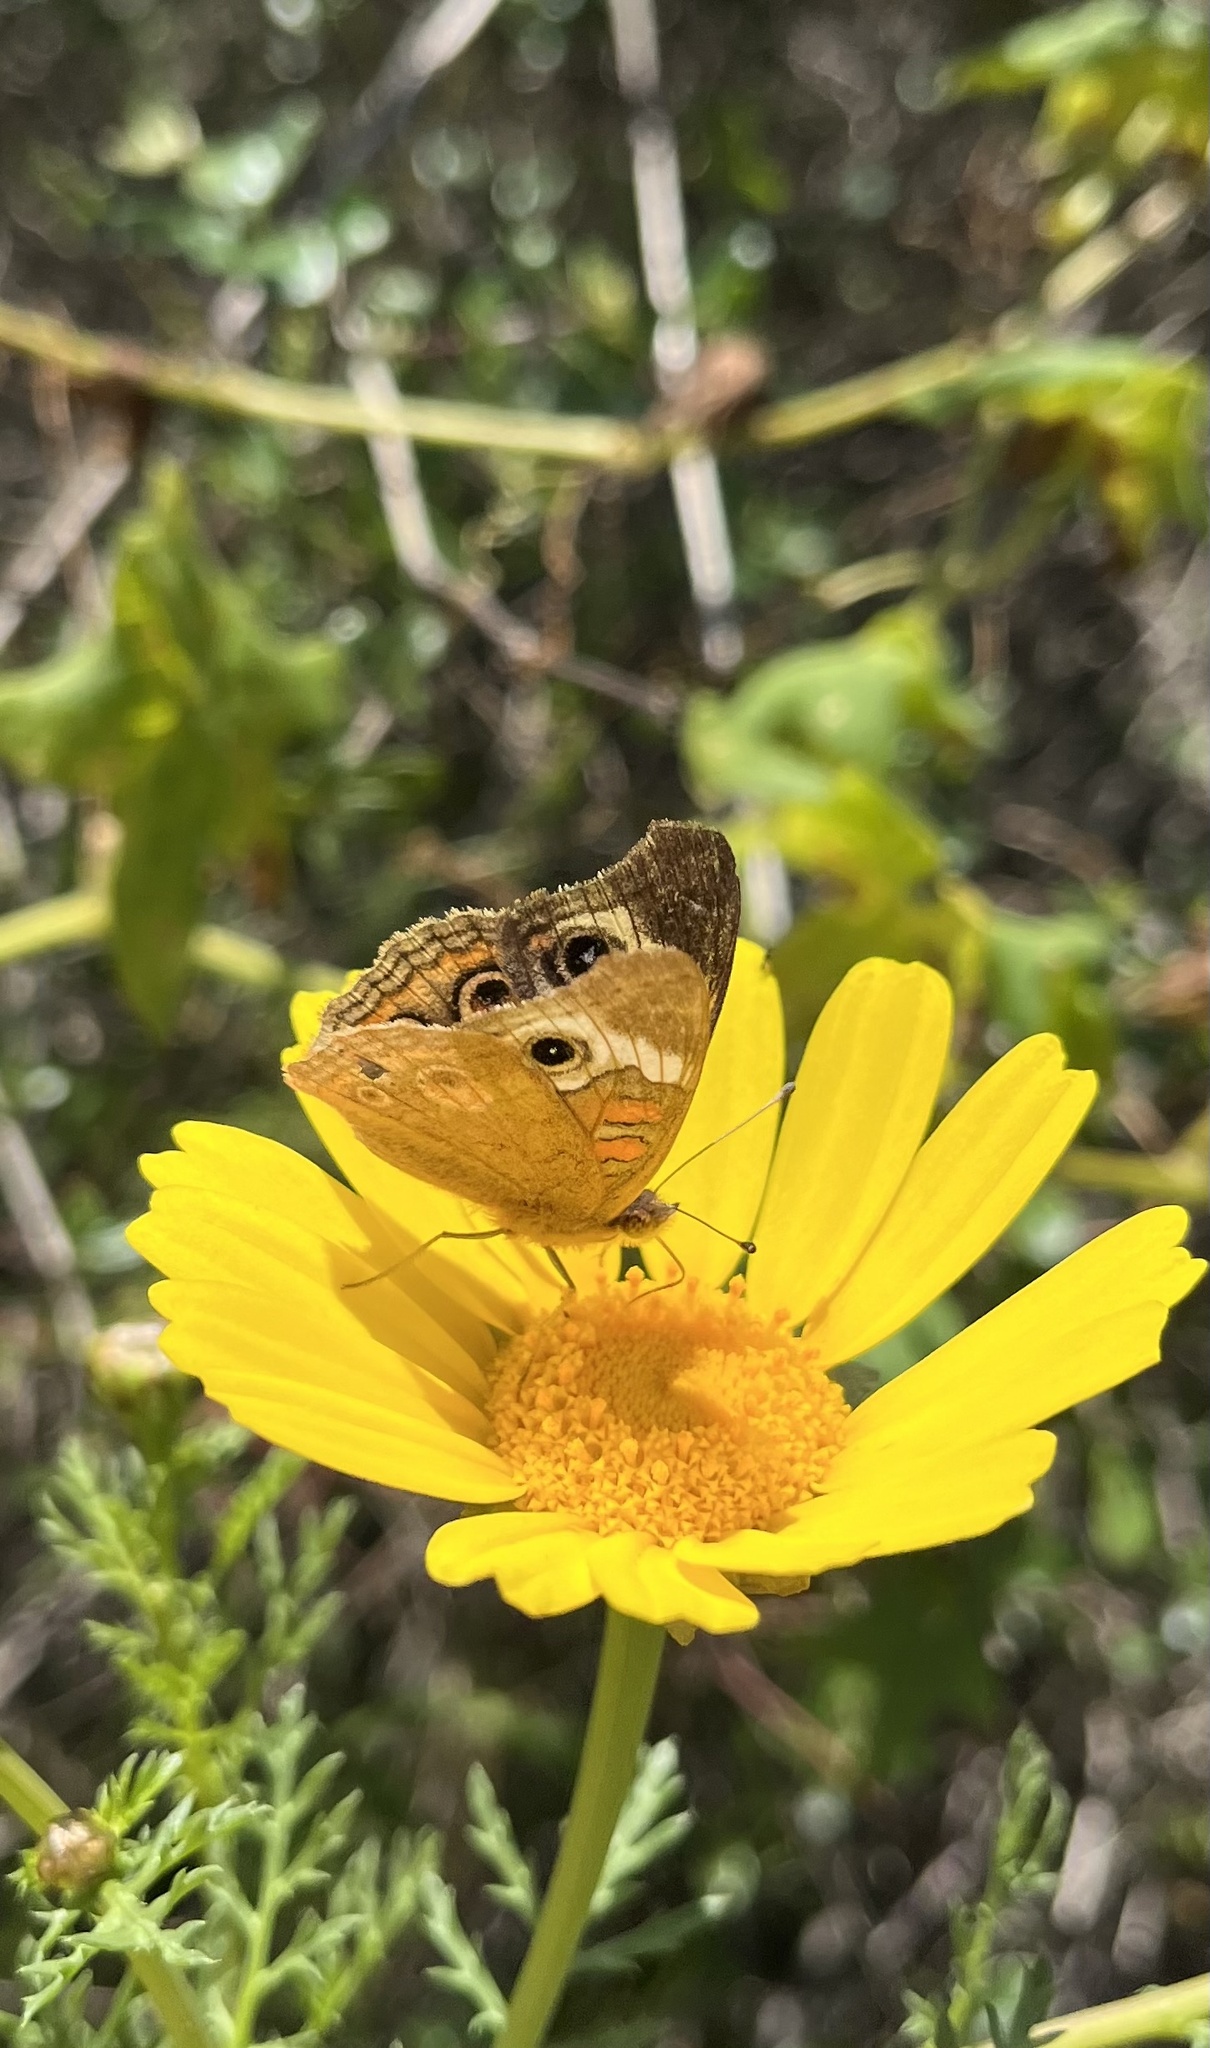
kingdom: Animalia
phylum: Arthropoda
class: Insecta
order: Lepidoptera
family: Nymphalidae
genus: Junonia
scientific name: Junonia grisea
